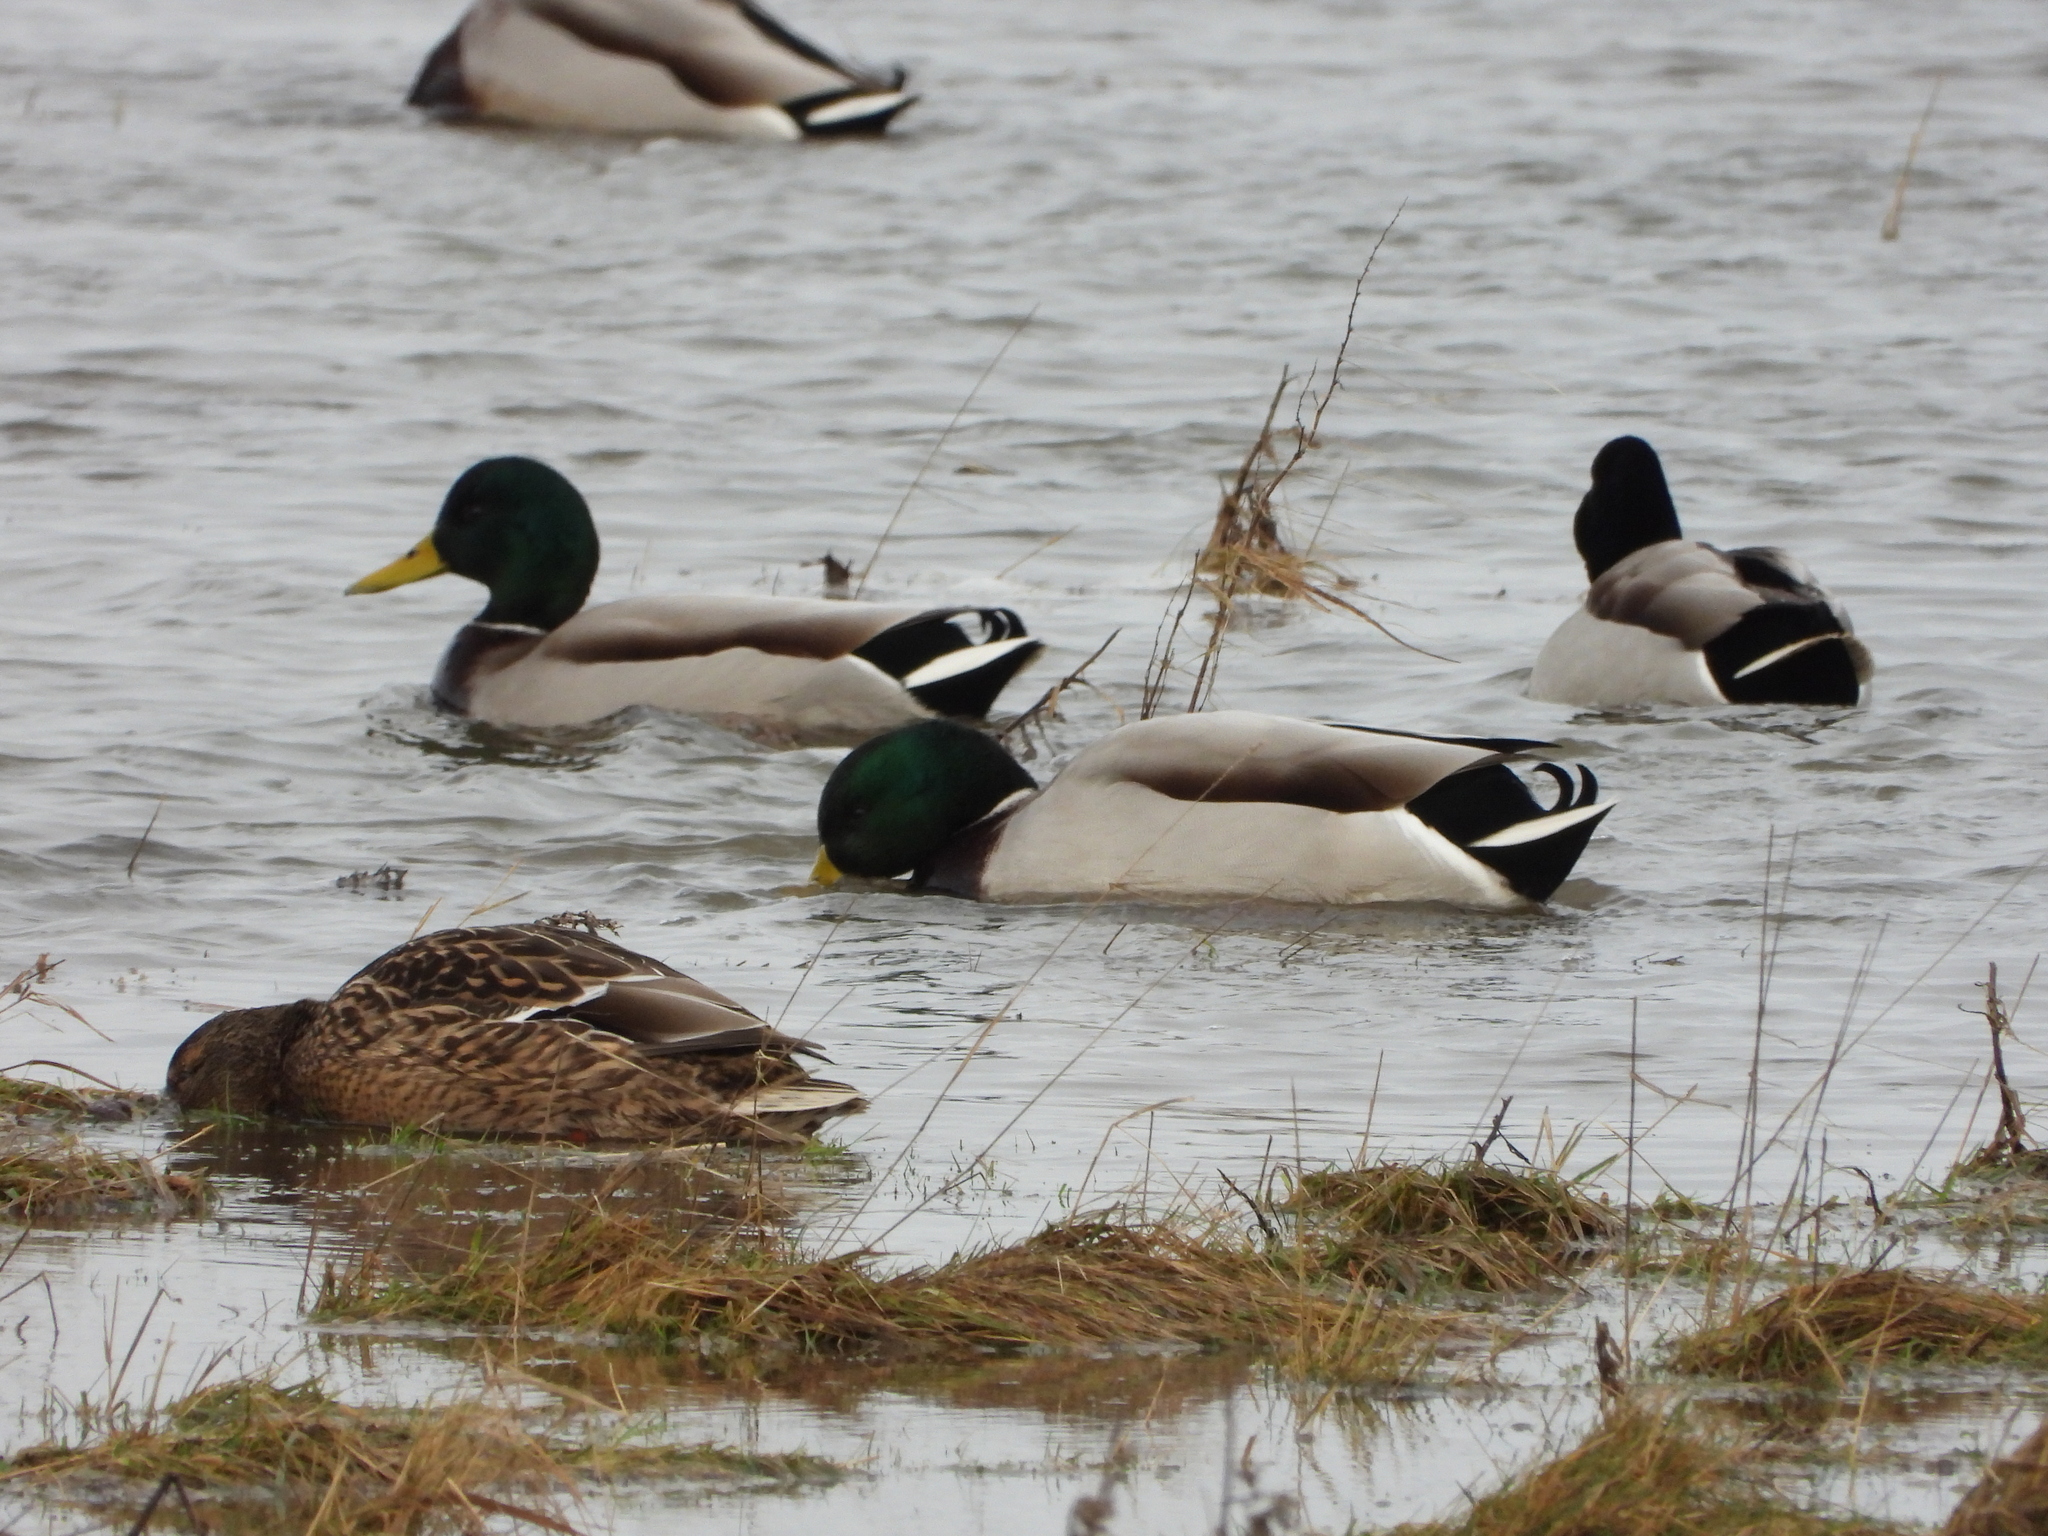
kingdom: Animalia
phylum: Chordata
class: Aves
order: Anseriformes
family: Anatidae
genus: Anas
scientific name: Anas platyrhynchos
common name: Mallard
